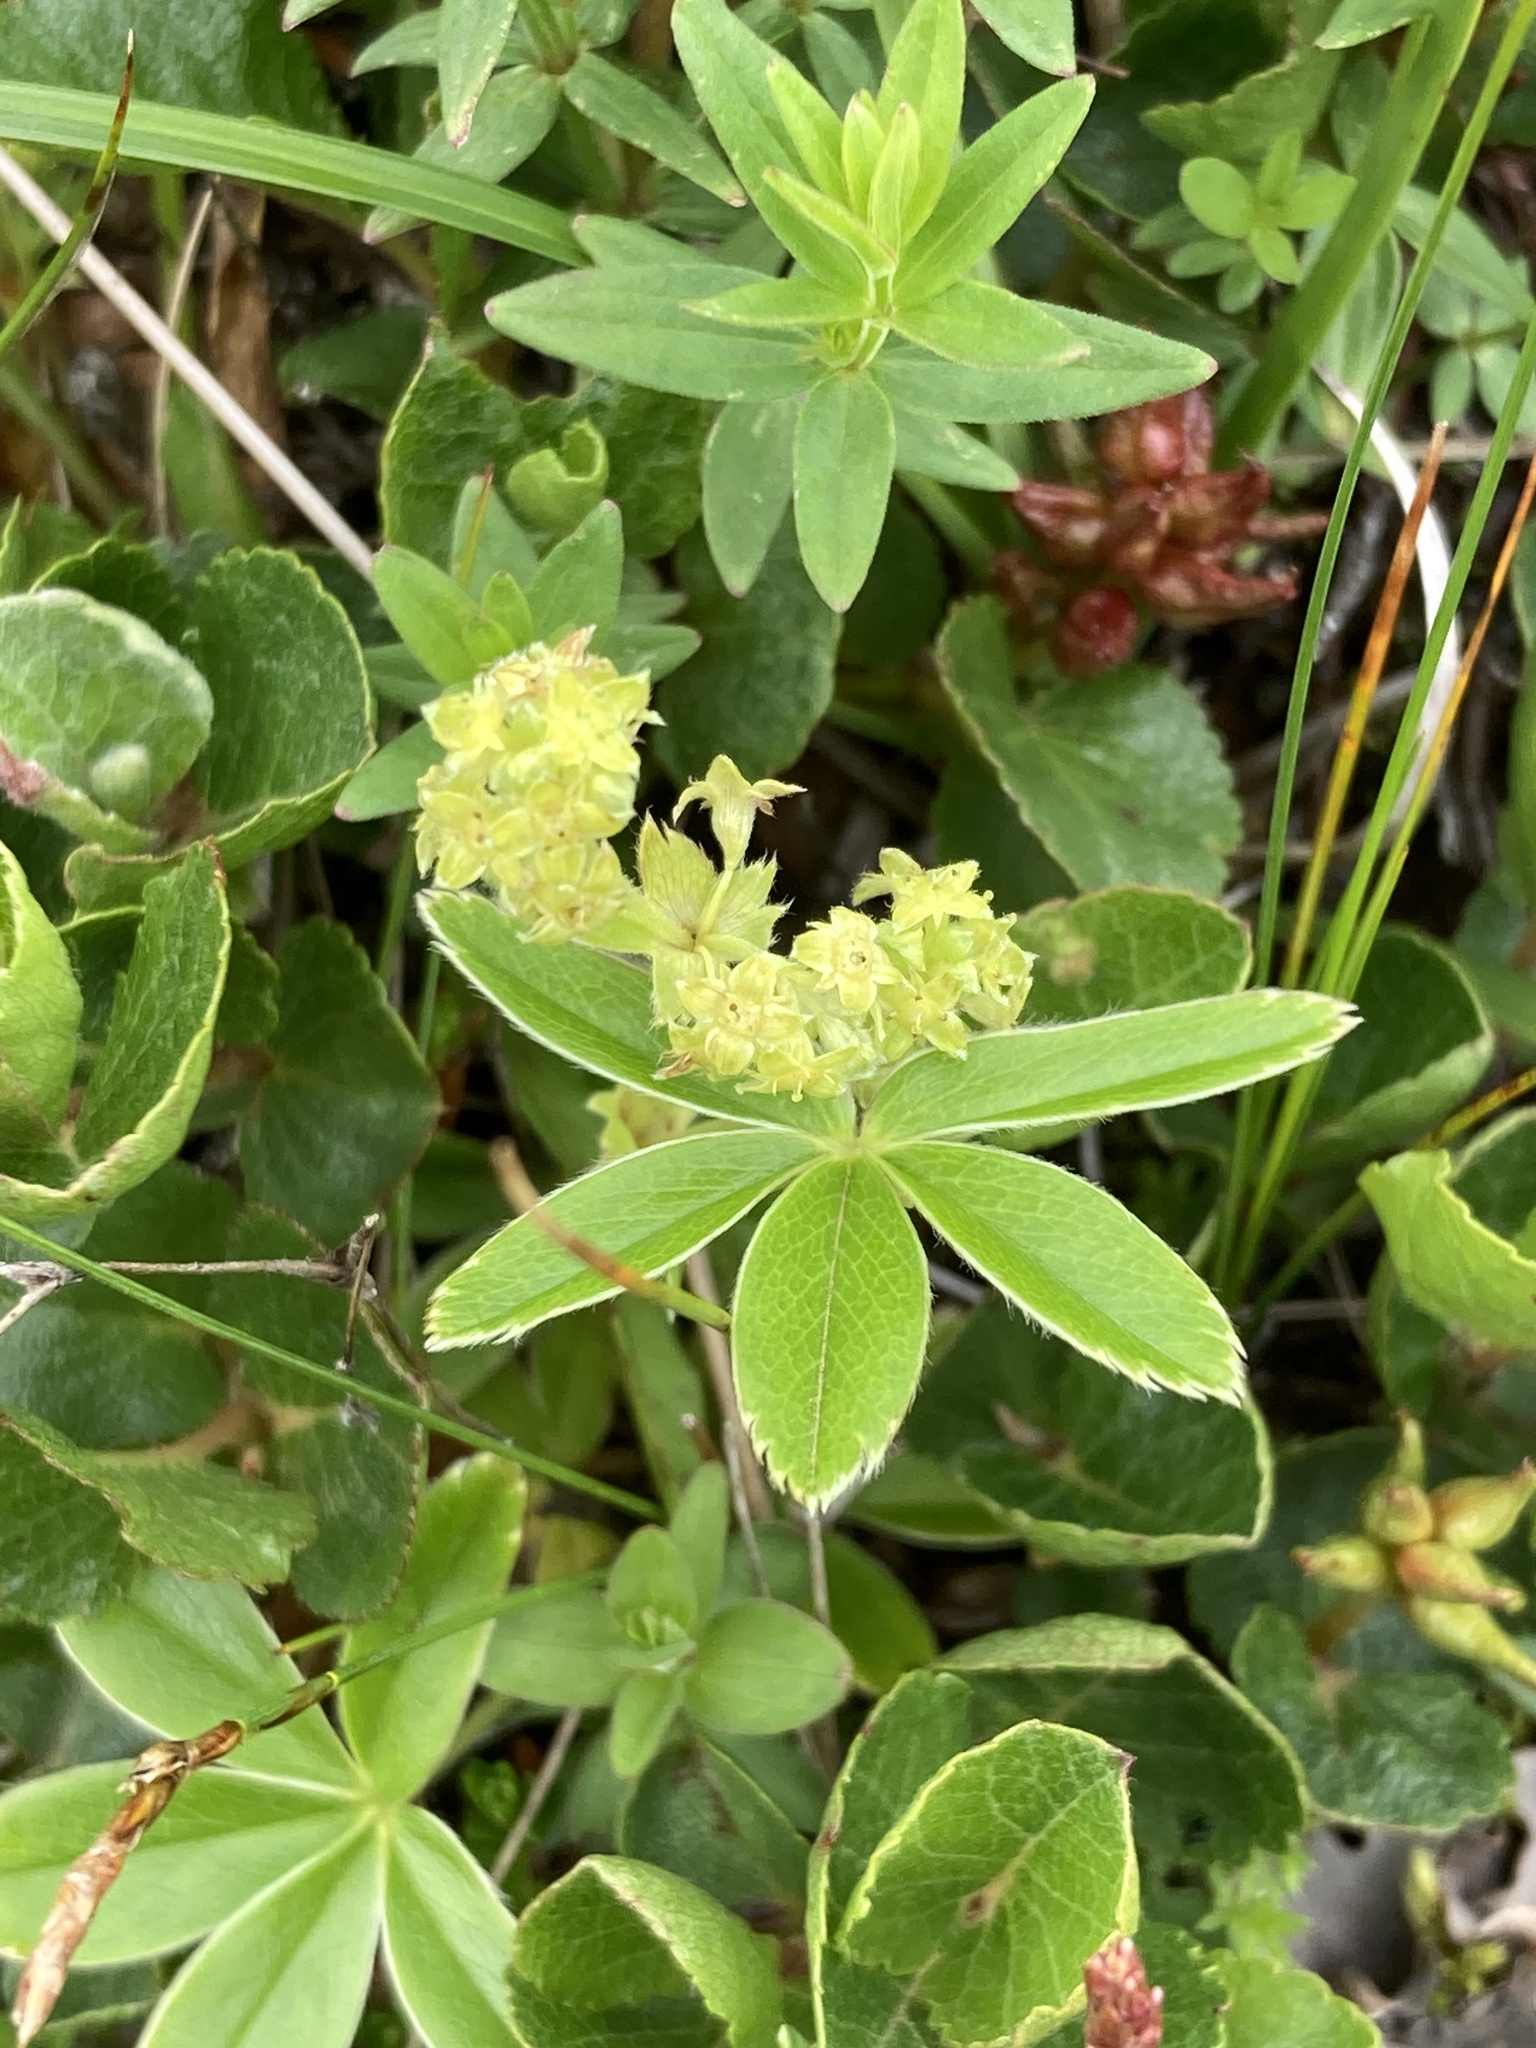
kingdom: Plantae
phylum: Tracheophyta
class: Magnoliopsida
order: Rosales
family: Rosaceae
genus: Alchemilla
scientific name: Alchemilla alpina
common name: Alpine lady's-mantle
